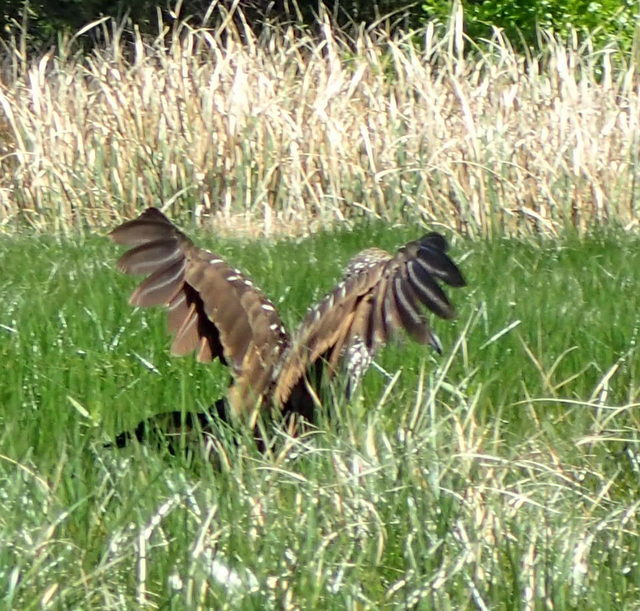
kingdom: Animalia
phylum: Chordata
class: Aves
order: Gruiformes
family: Aramidae
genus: Aramus
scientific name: Aramus guarauna
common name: Limpkin
